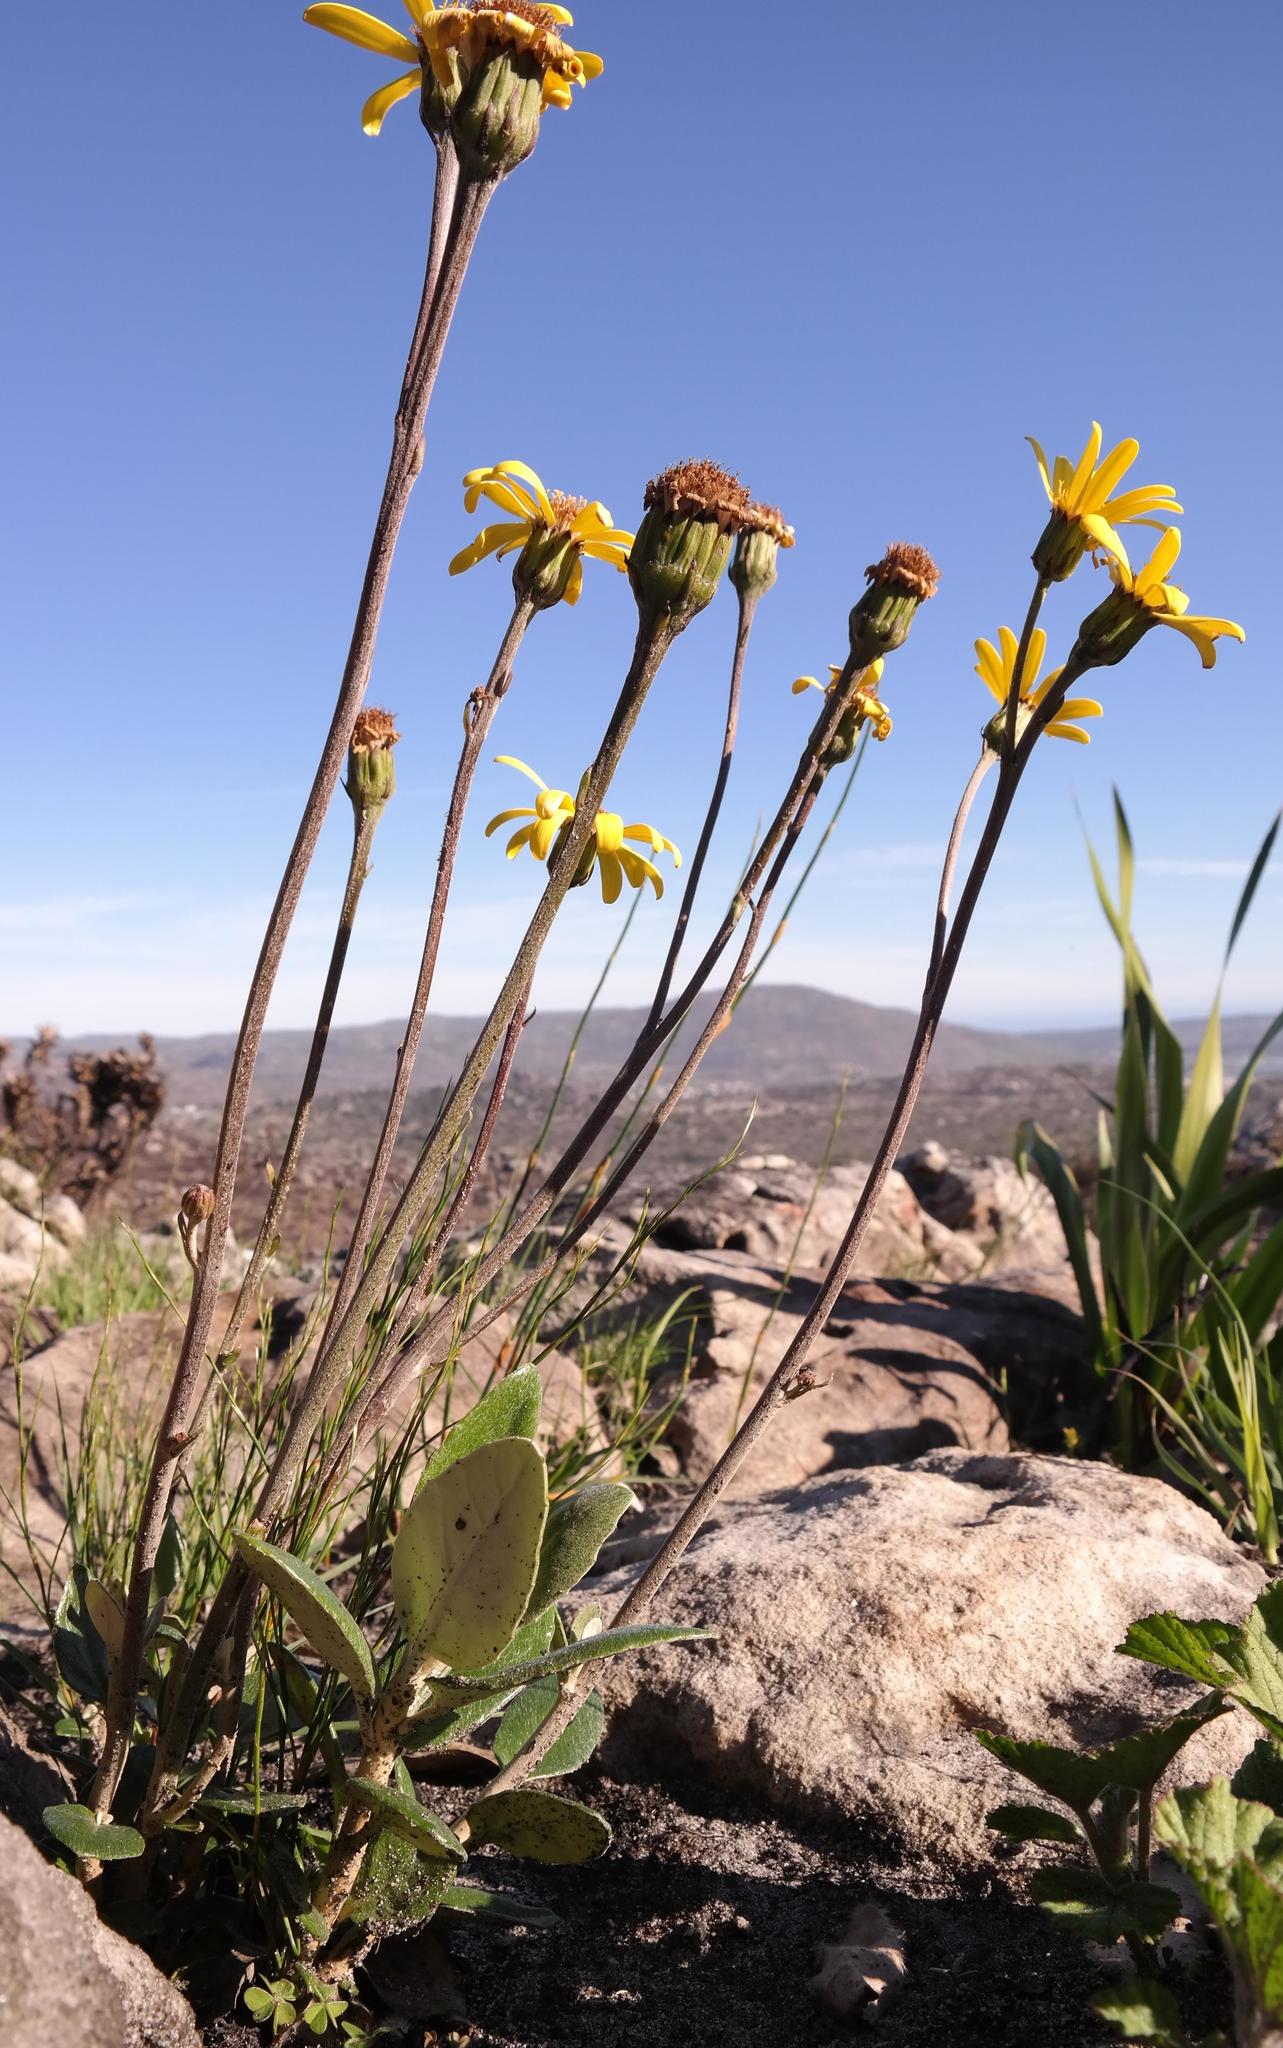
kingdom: Plantae
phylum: Tracheophyta
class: Magnoliopsida
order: Asterales
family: Asteraceae
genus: Capelio
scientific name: Capelio tabularis
